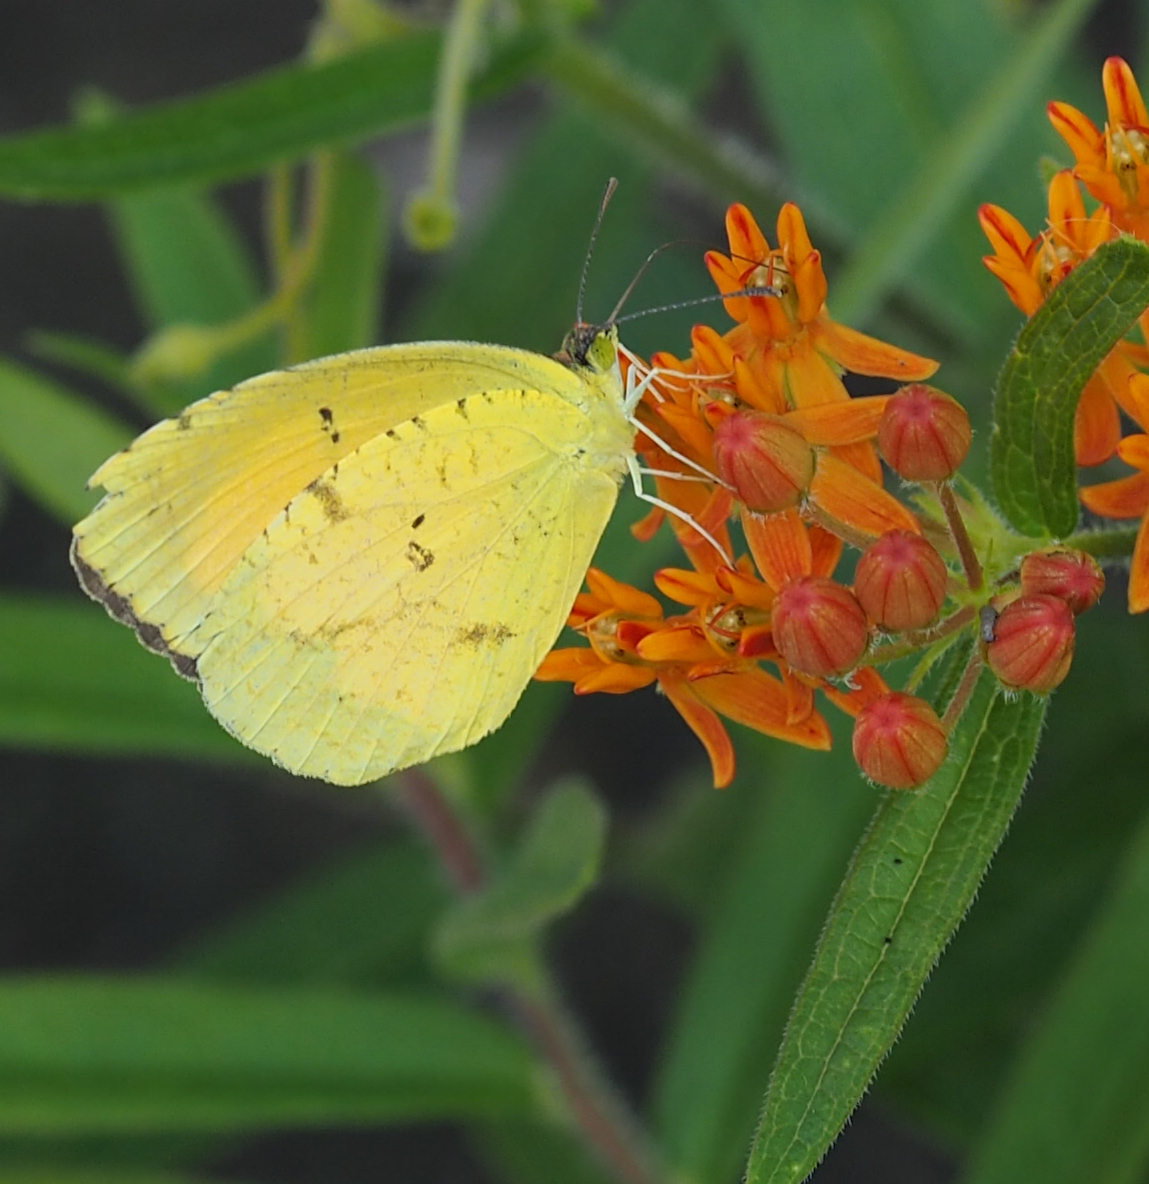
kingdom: Animalia
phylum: Arthropoda
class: Insecta
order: Lepidoptera
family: Pieridae
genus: Abaeis
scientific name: Abaeis nicippe
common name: Sleepy orange
